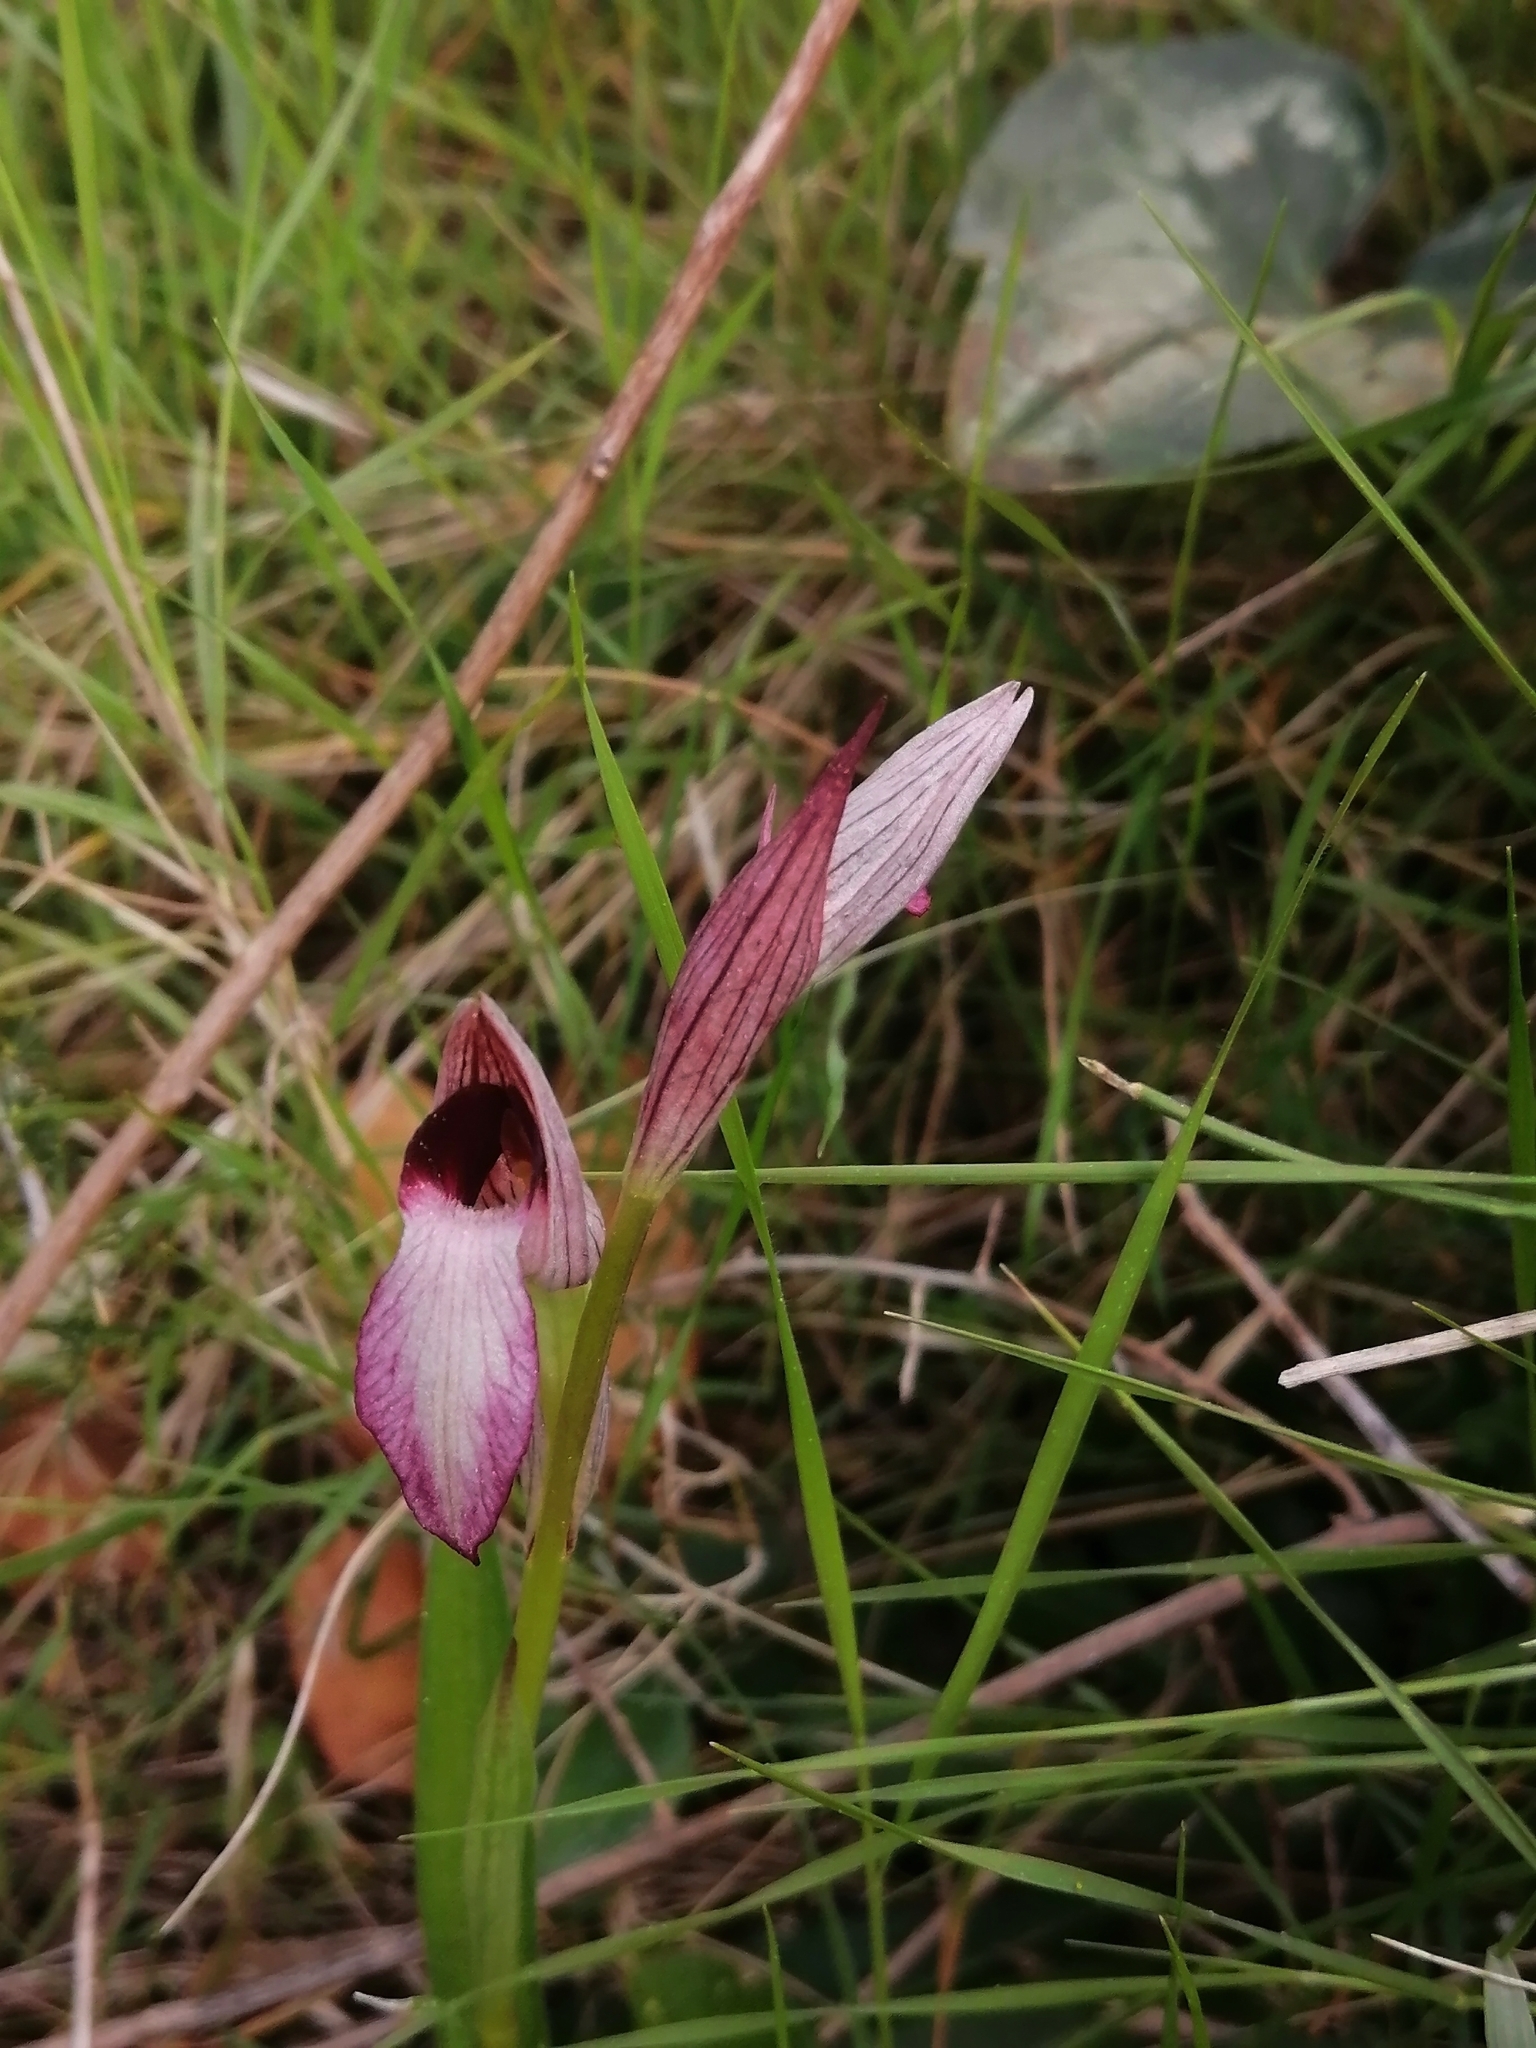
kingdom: Plantae
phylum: Tracheophyta
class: Liliopsida
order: Asparagales
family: Orchidaceae
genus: Serapias
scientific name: Serapias lingua
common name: Tongue-orchid
